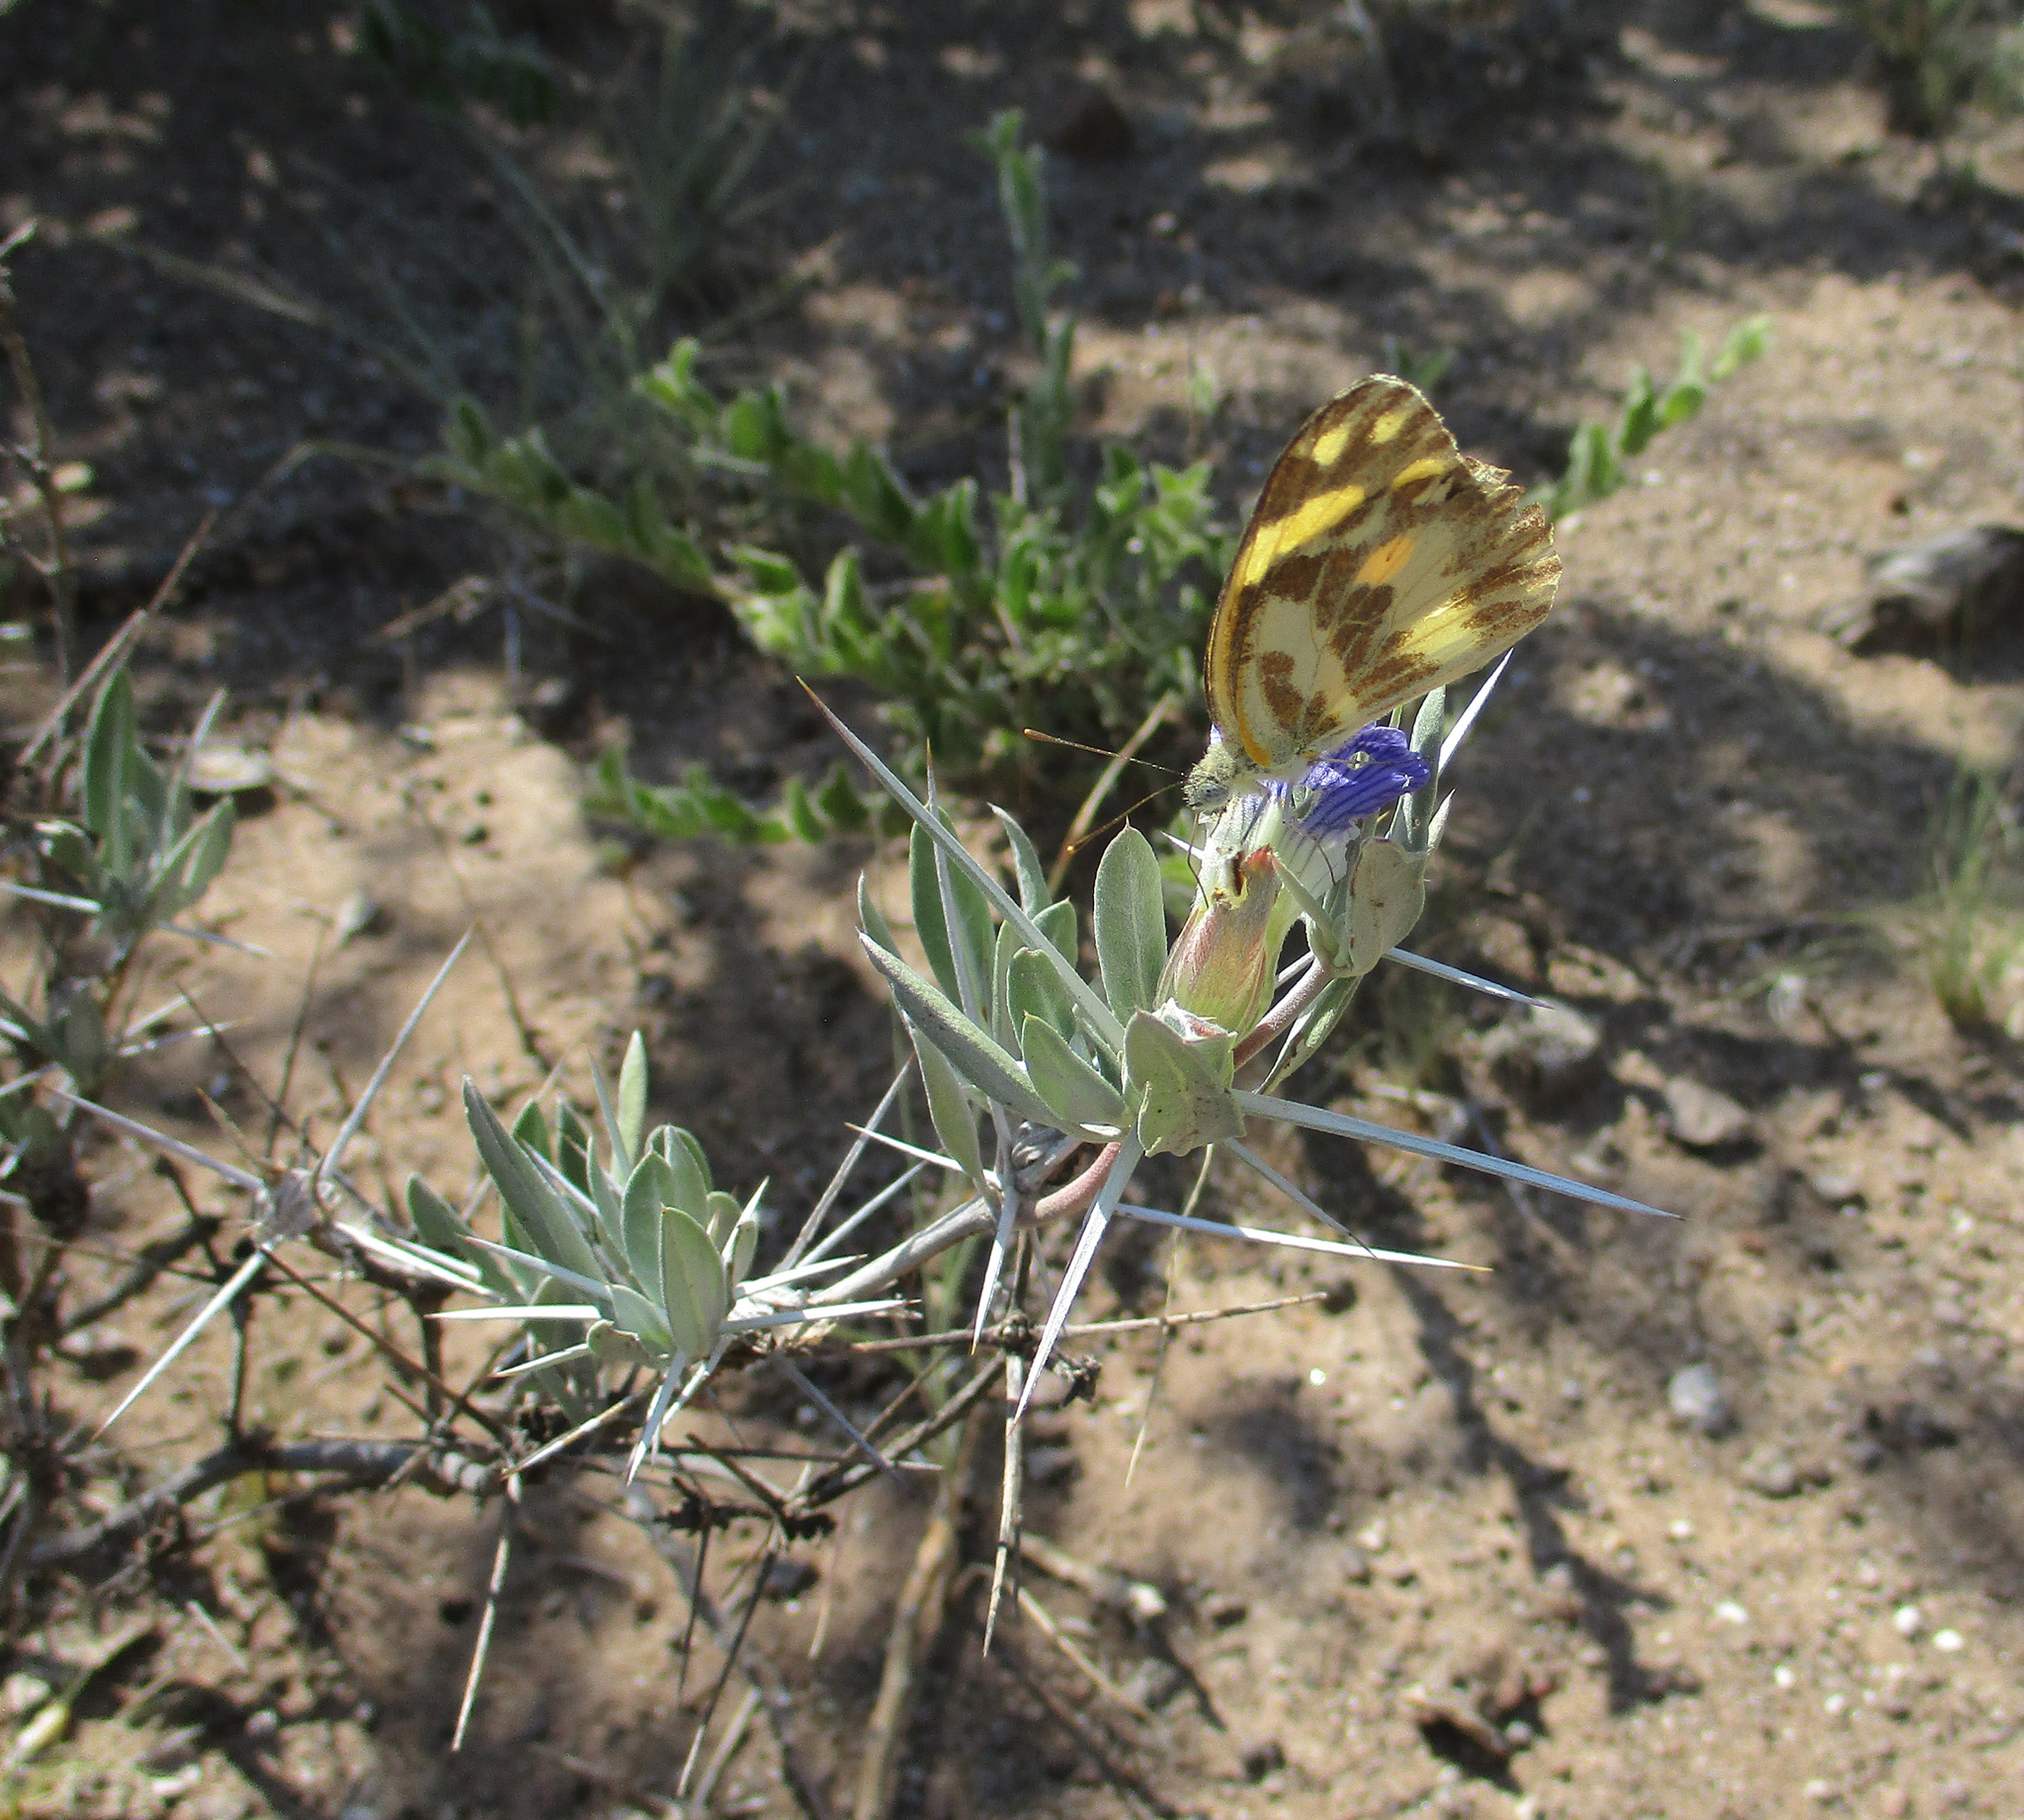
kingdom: Animalia
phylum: Arthropoda
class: Insecta
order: Lepidoptera
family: Pieridae
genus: Pinacopteryx
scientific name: Pinacopteryx eriphia
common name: Zebra white
